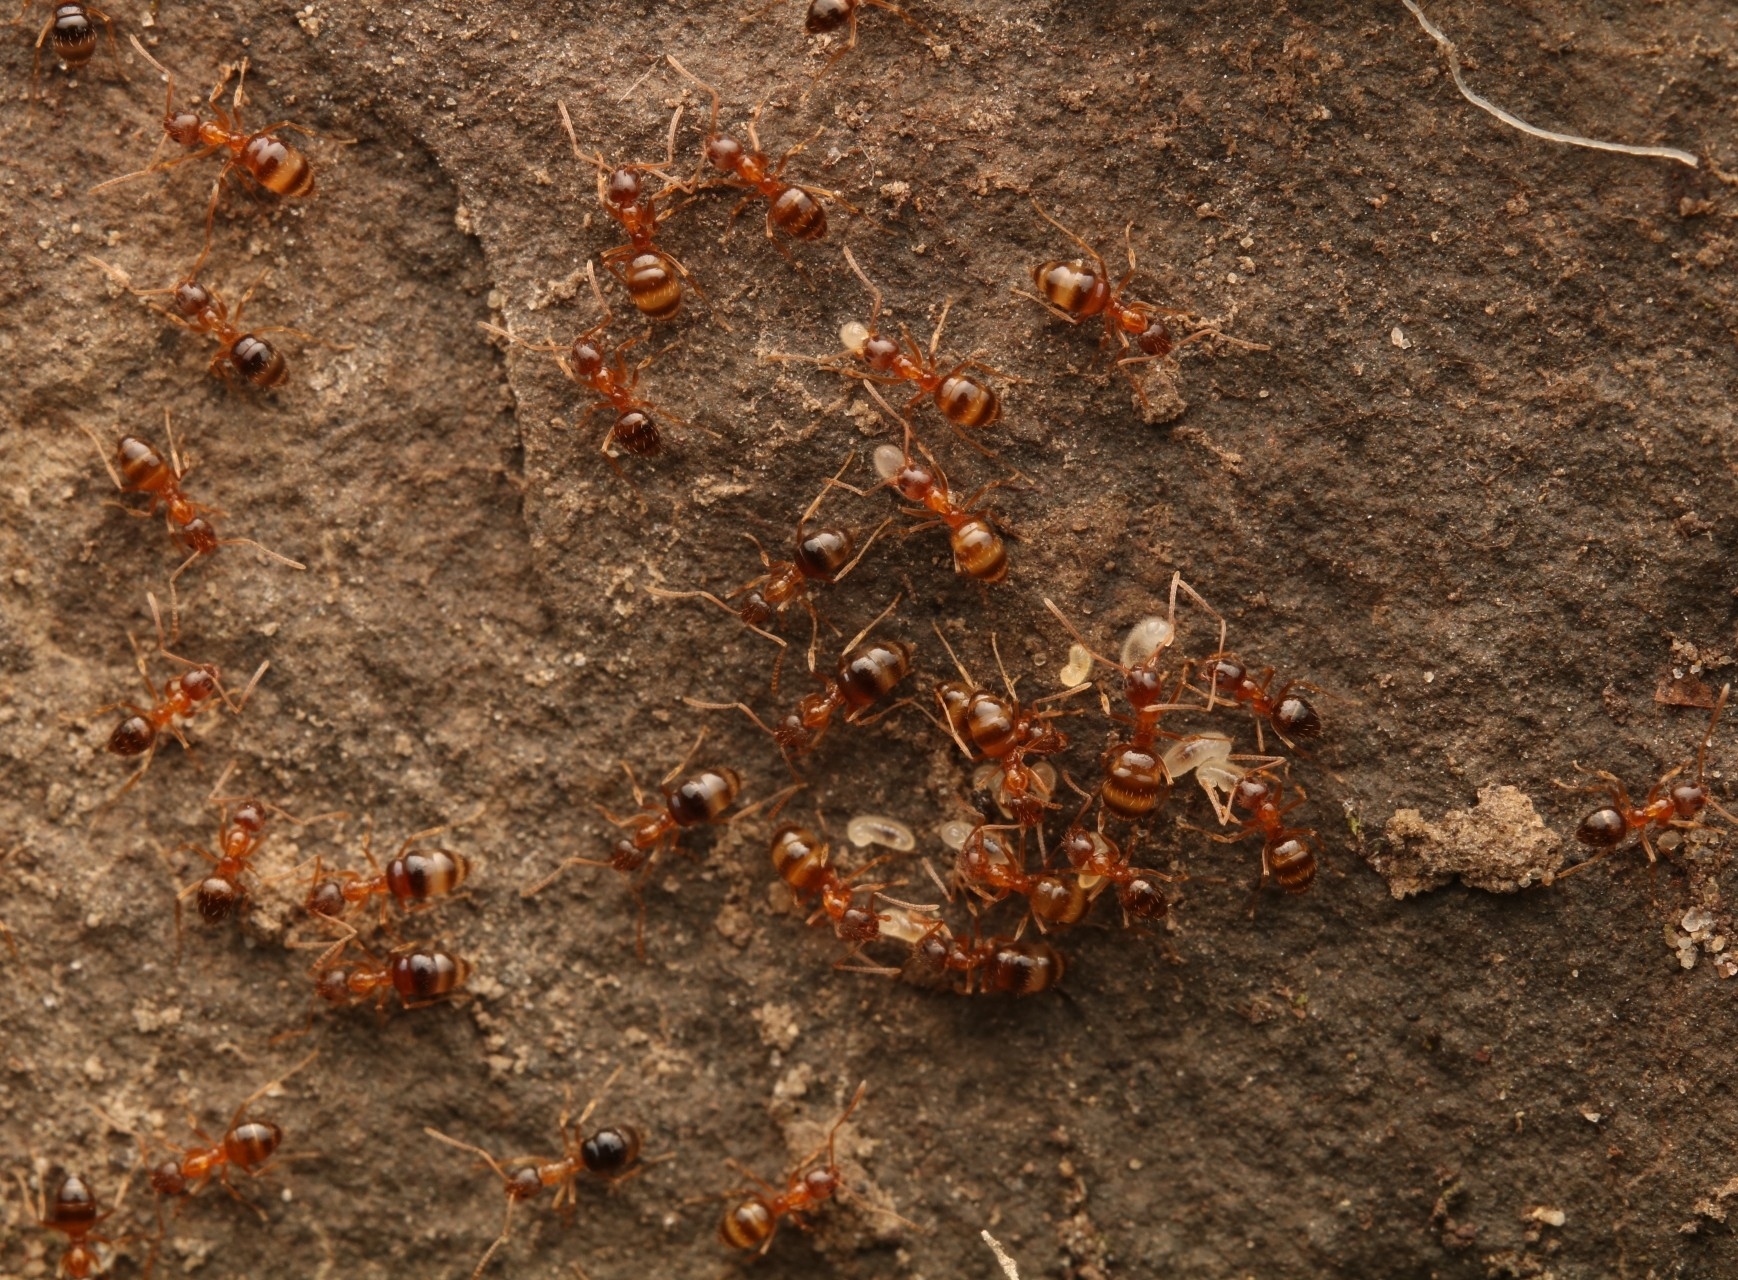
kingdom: Animalia
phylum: Arthropoda
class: Insecta
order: Hymenoptera
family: Formicidae
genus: Paratrechina
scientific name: Paratrechina flavipes
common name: Eastern asian formicine ant
